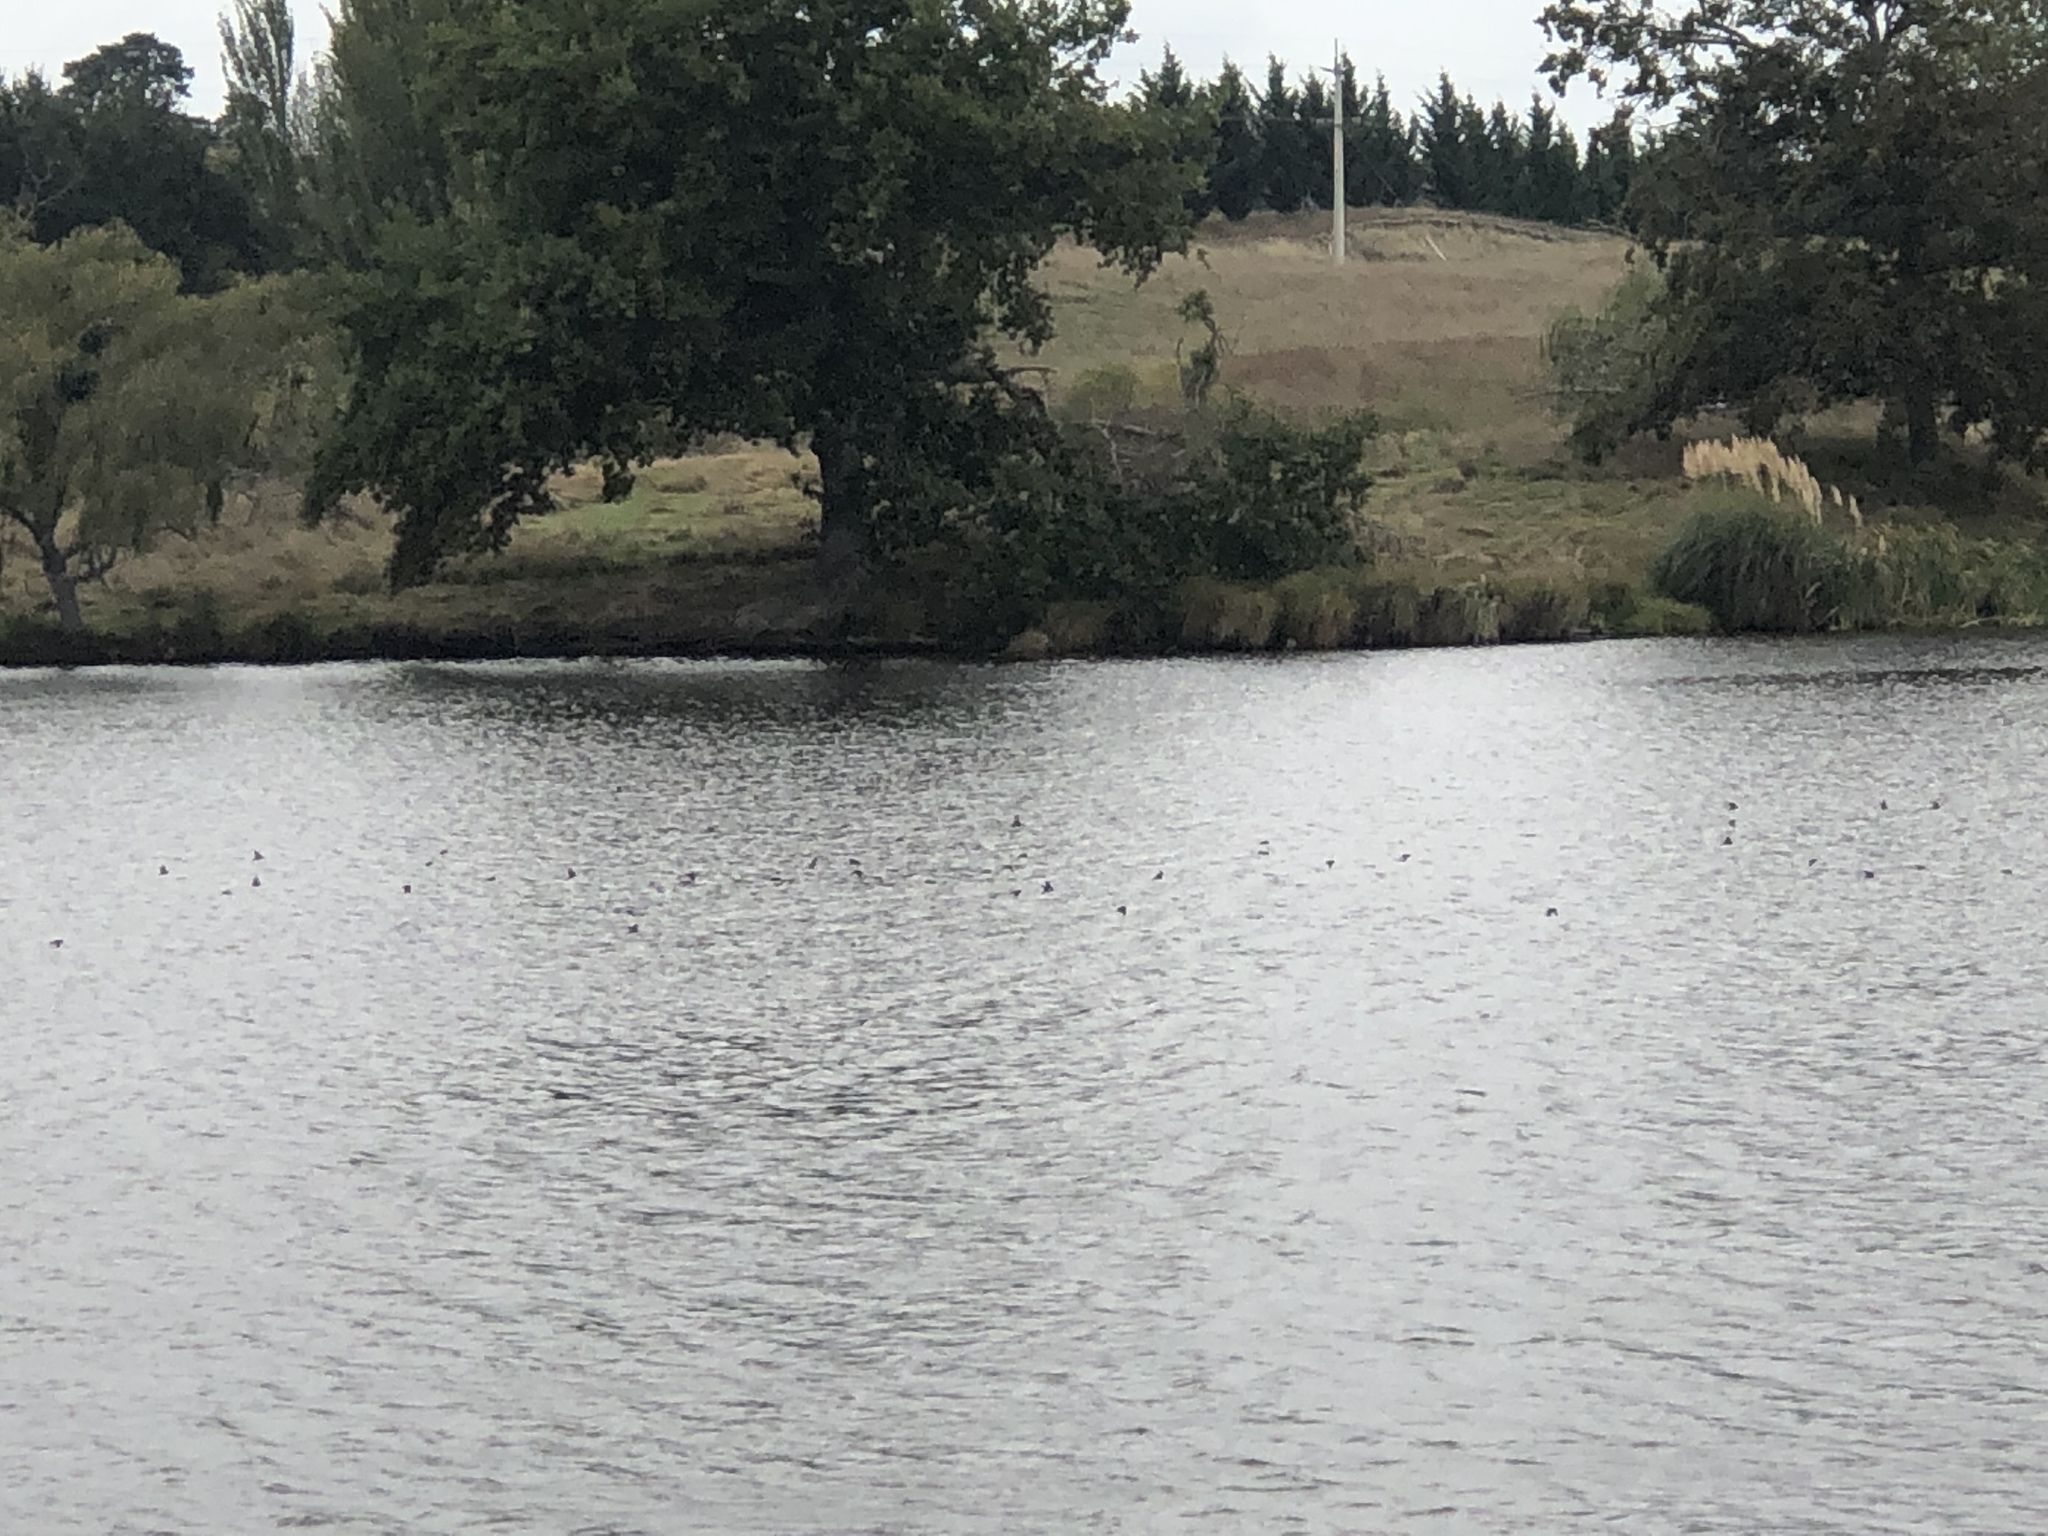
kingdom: Animalia
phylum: Chordata
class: Aves
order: Passeriformes
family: Hirundinidae
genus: Hirundo
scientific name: Hirundo neoxena
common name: Welcome swallow
